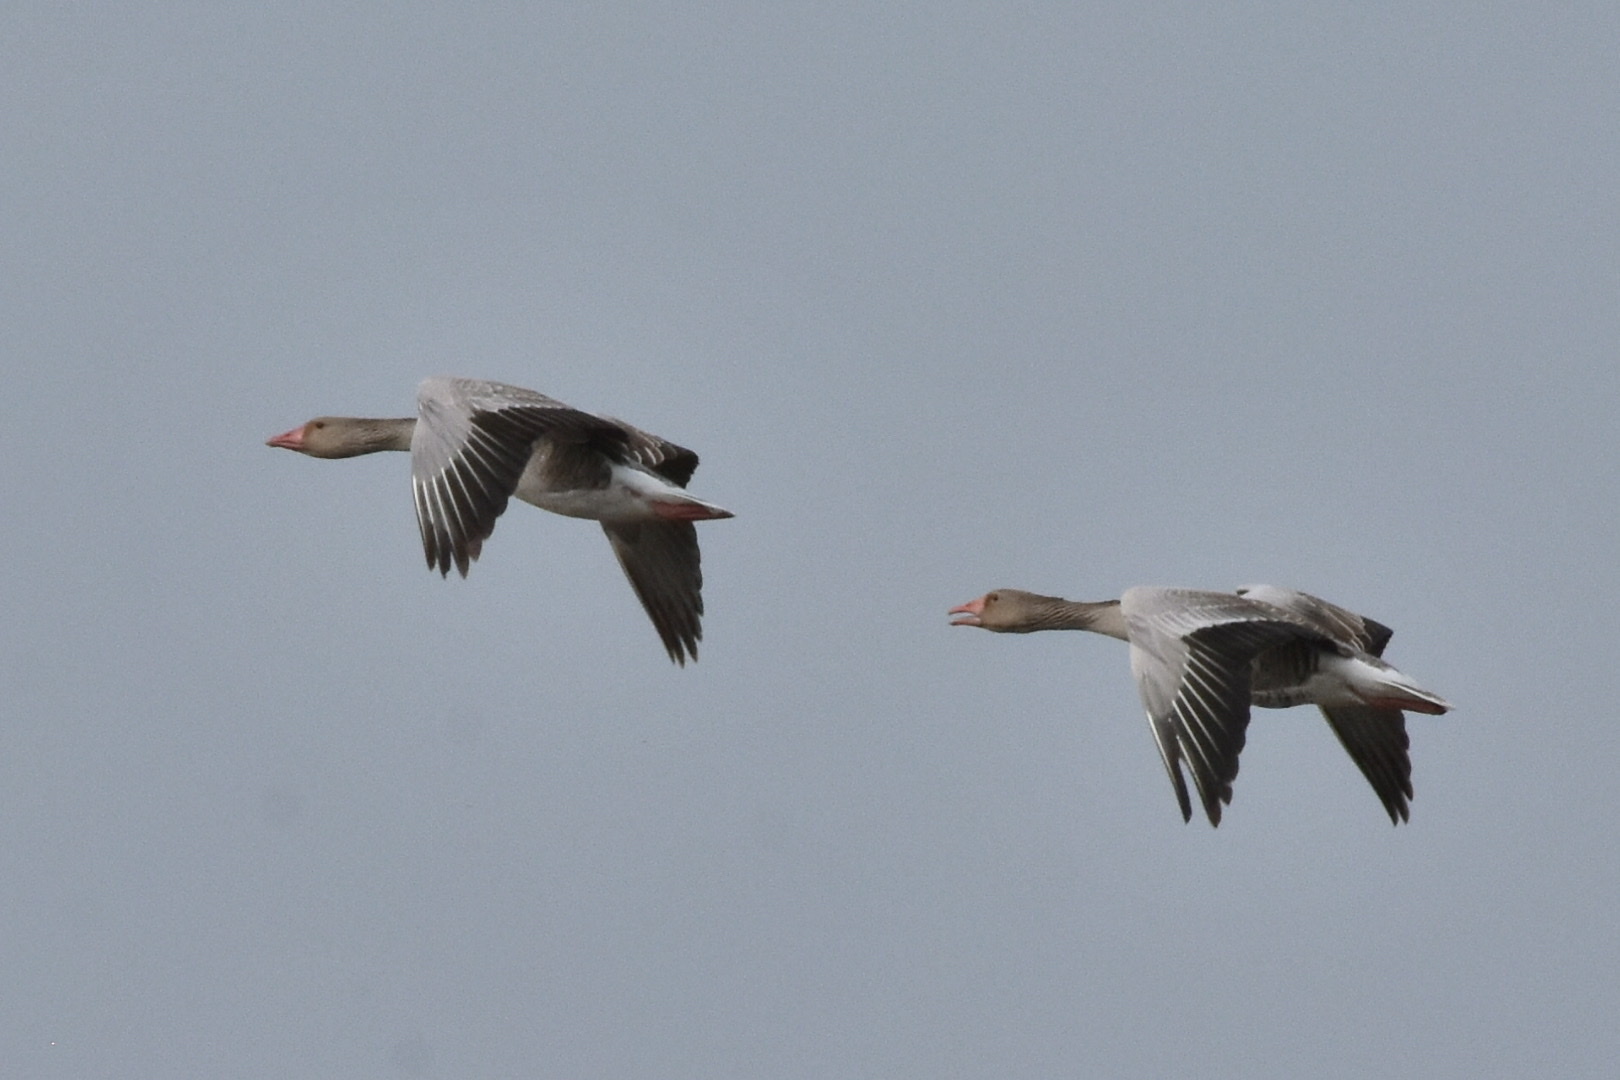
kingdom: Animalia
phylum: Chordata
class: Aves
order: Anseriformes
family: Anatidae
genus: Anser
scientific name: Anser anser
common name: Greylag goose
